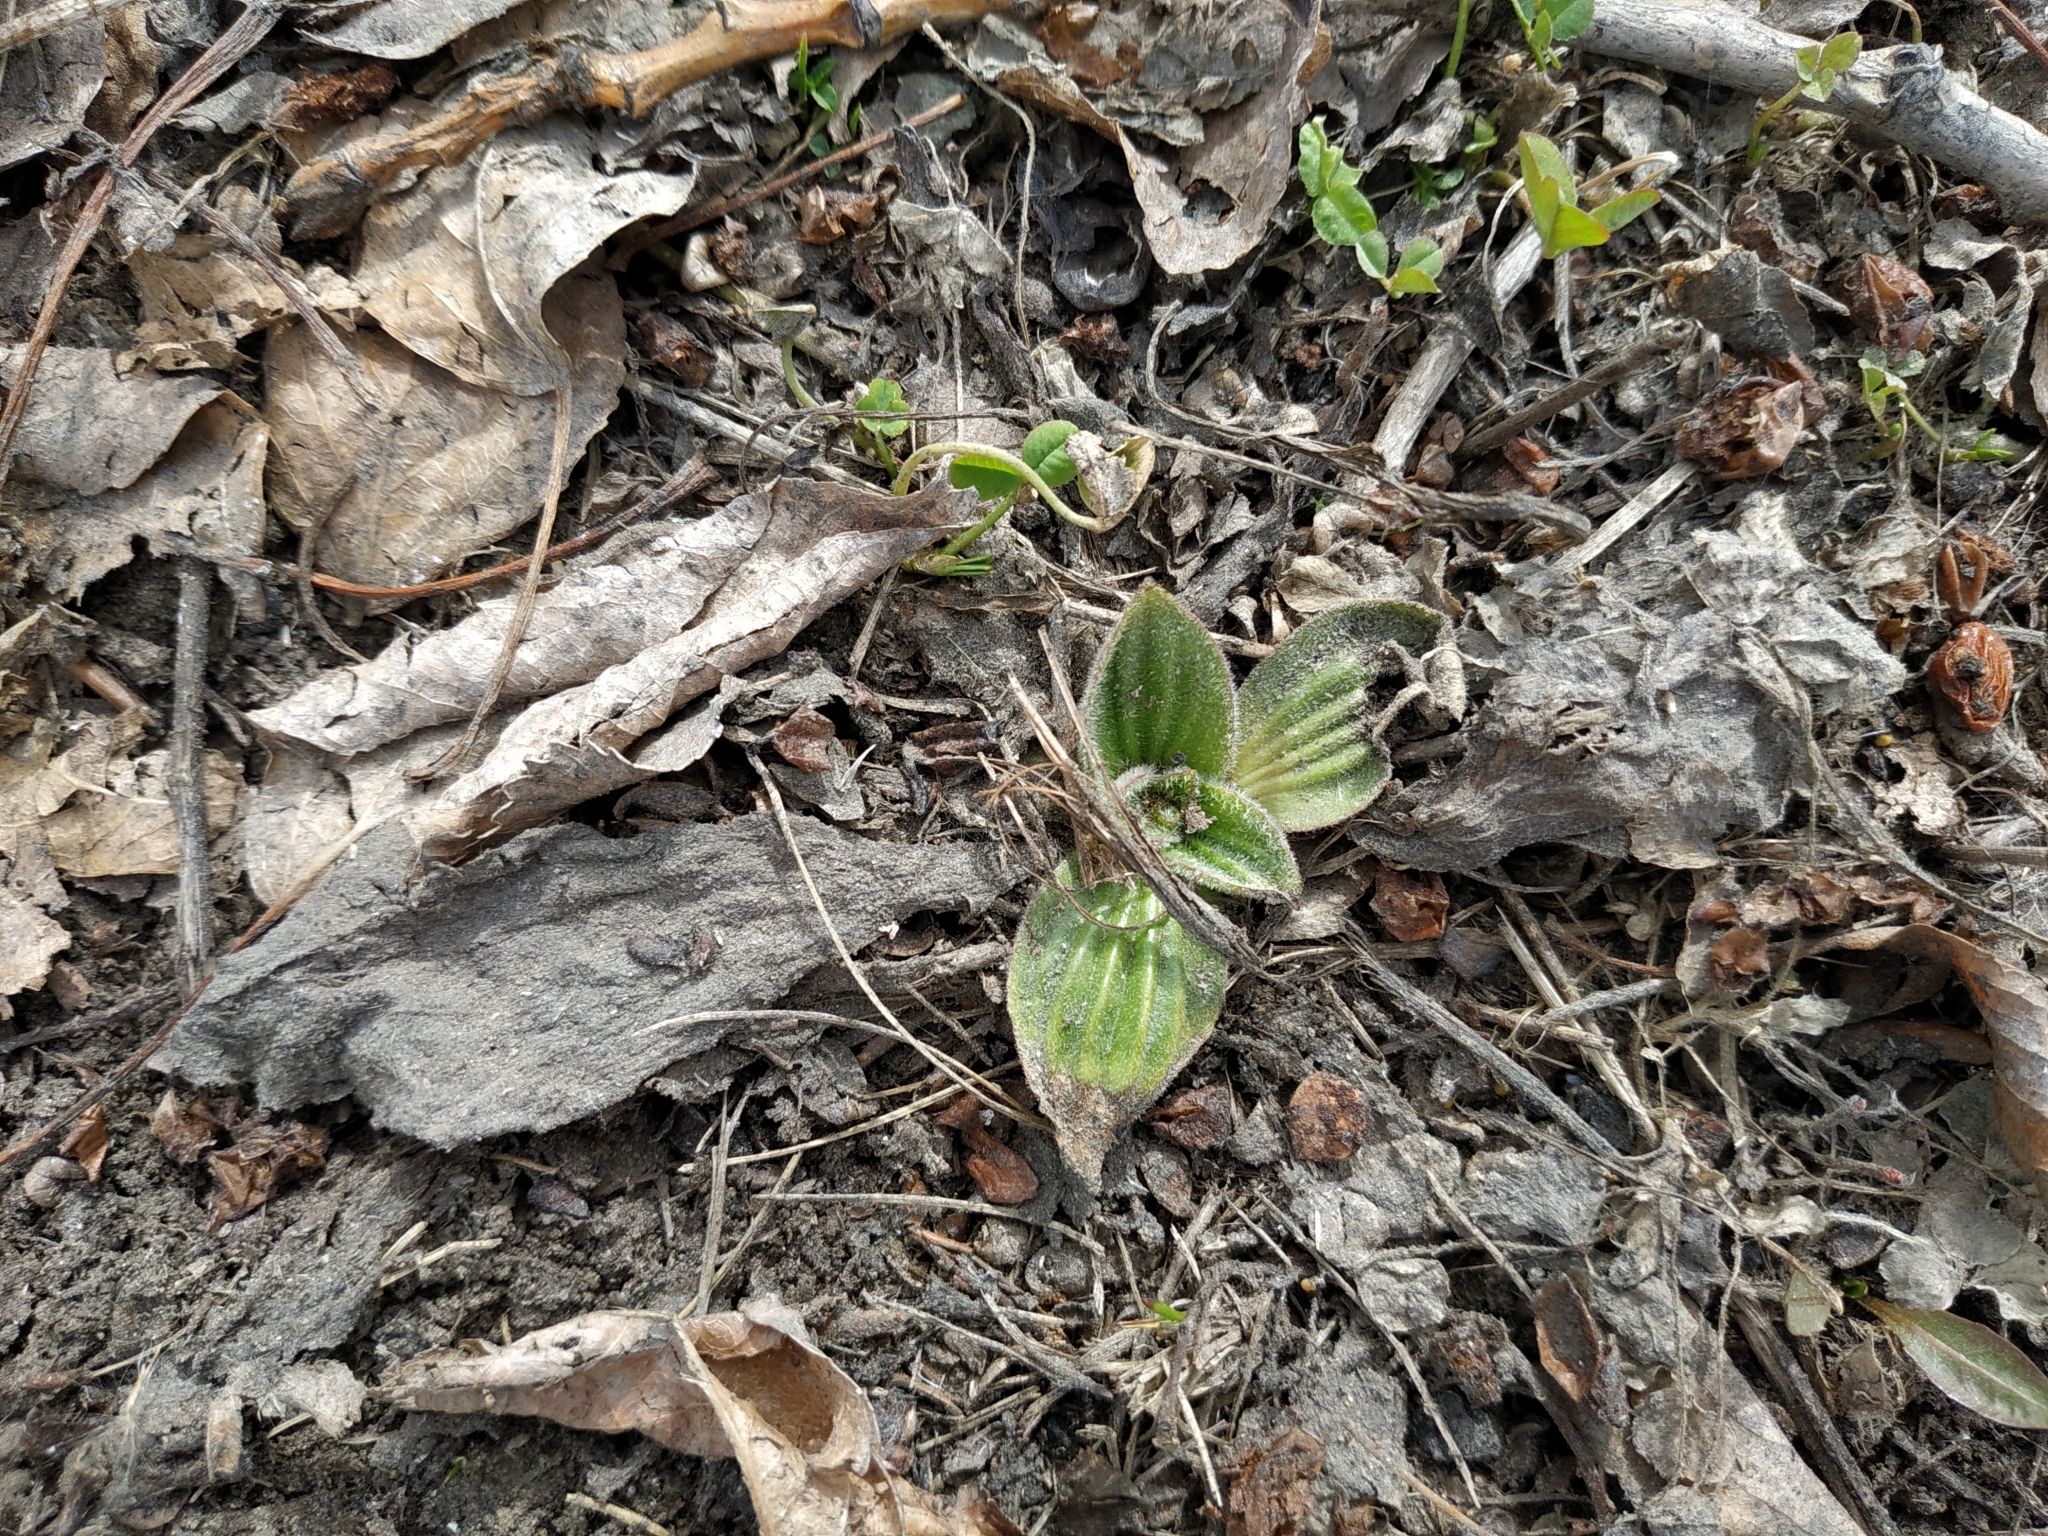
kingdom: Plantae
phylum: Tracheophyta
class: Magnoliopsida
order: Lamiales
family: Plantaginaceae
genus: Plantago
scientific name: Plantago media
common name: Hoary plantain
